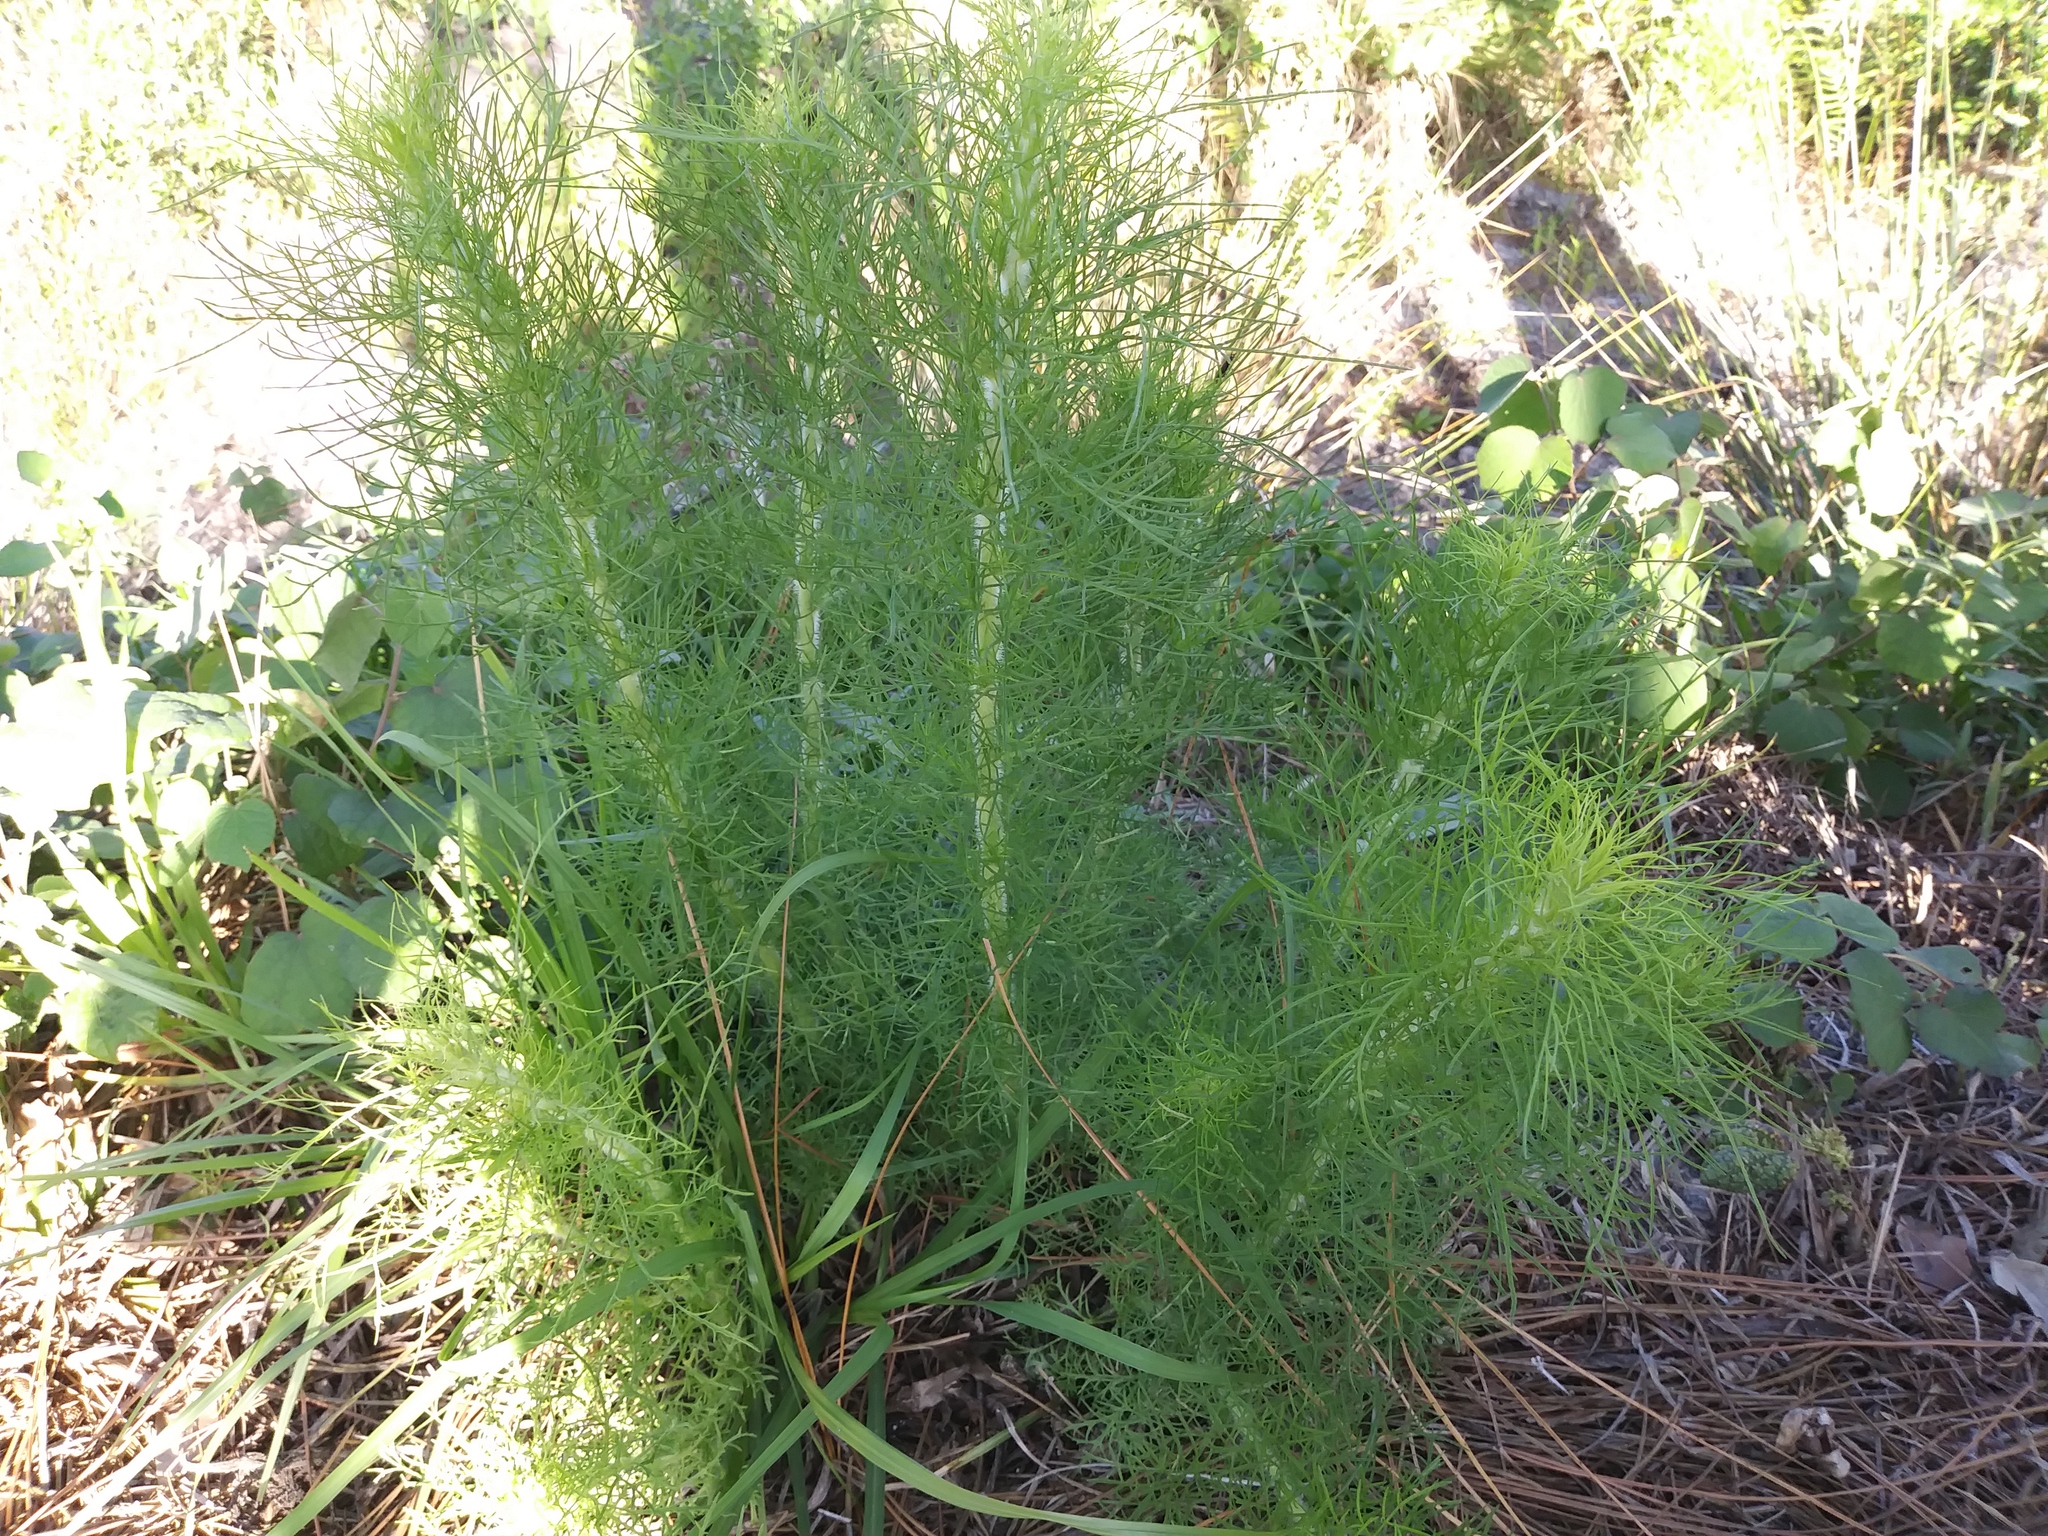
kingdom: Plantae
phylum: Tracheophyta
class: Magnoliopsida
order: Asterales
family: Asteraceae
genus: Eupatorium
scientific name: Eupatorium capillifolium
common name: Dog-fennel
